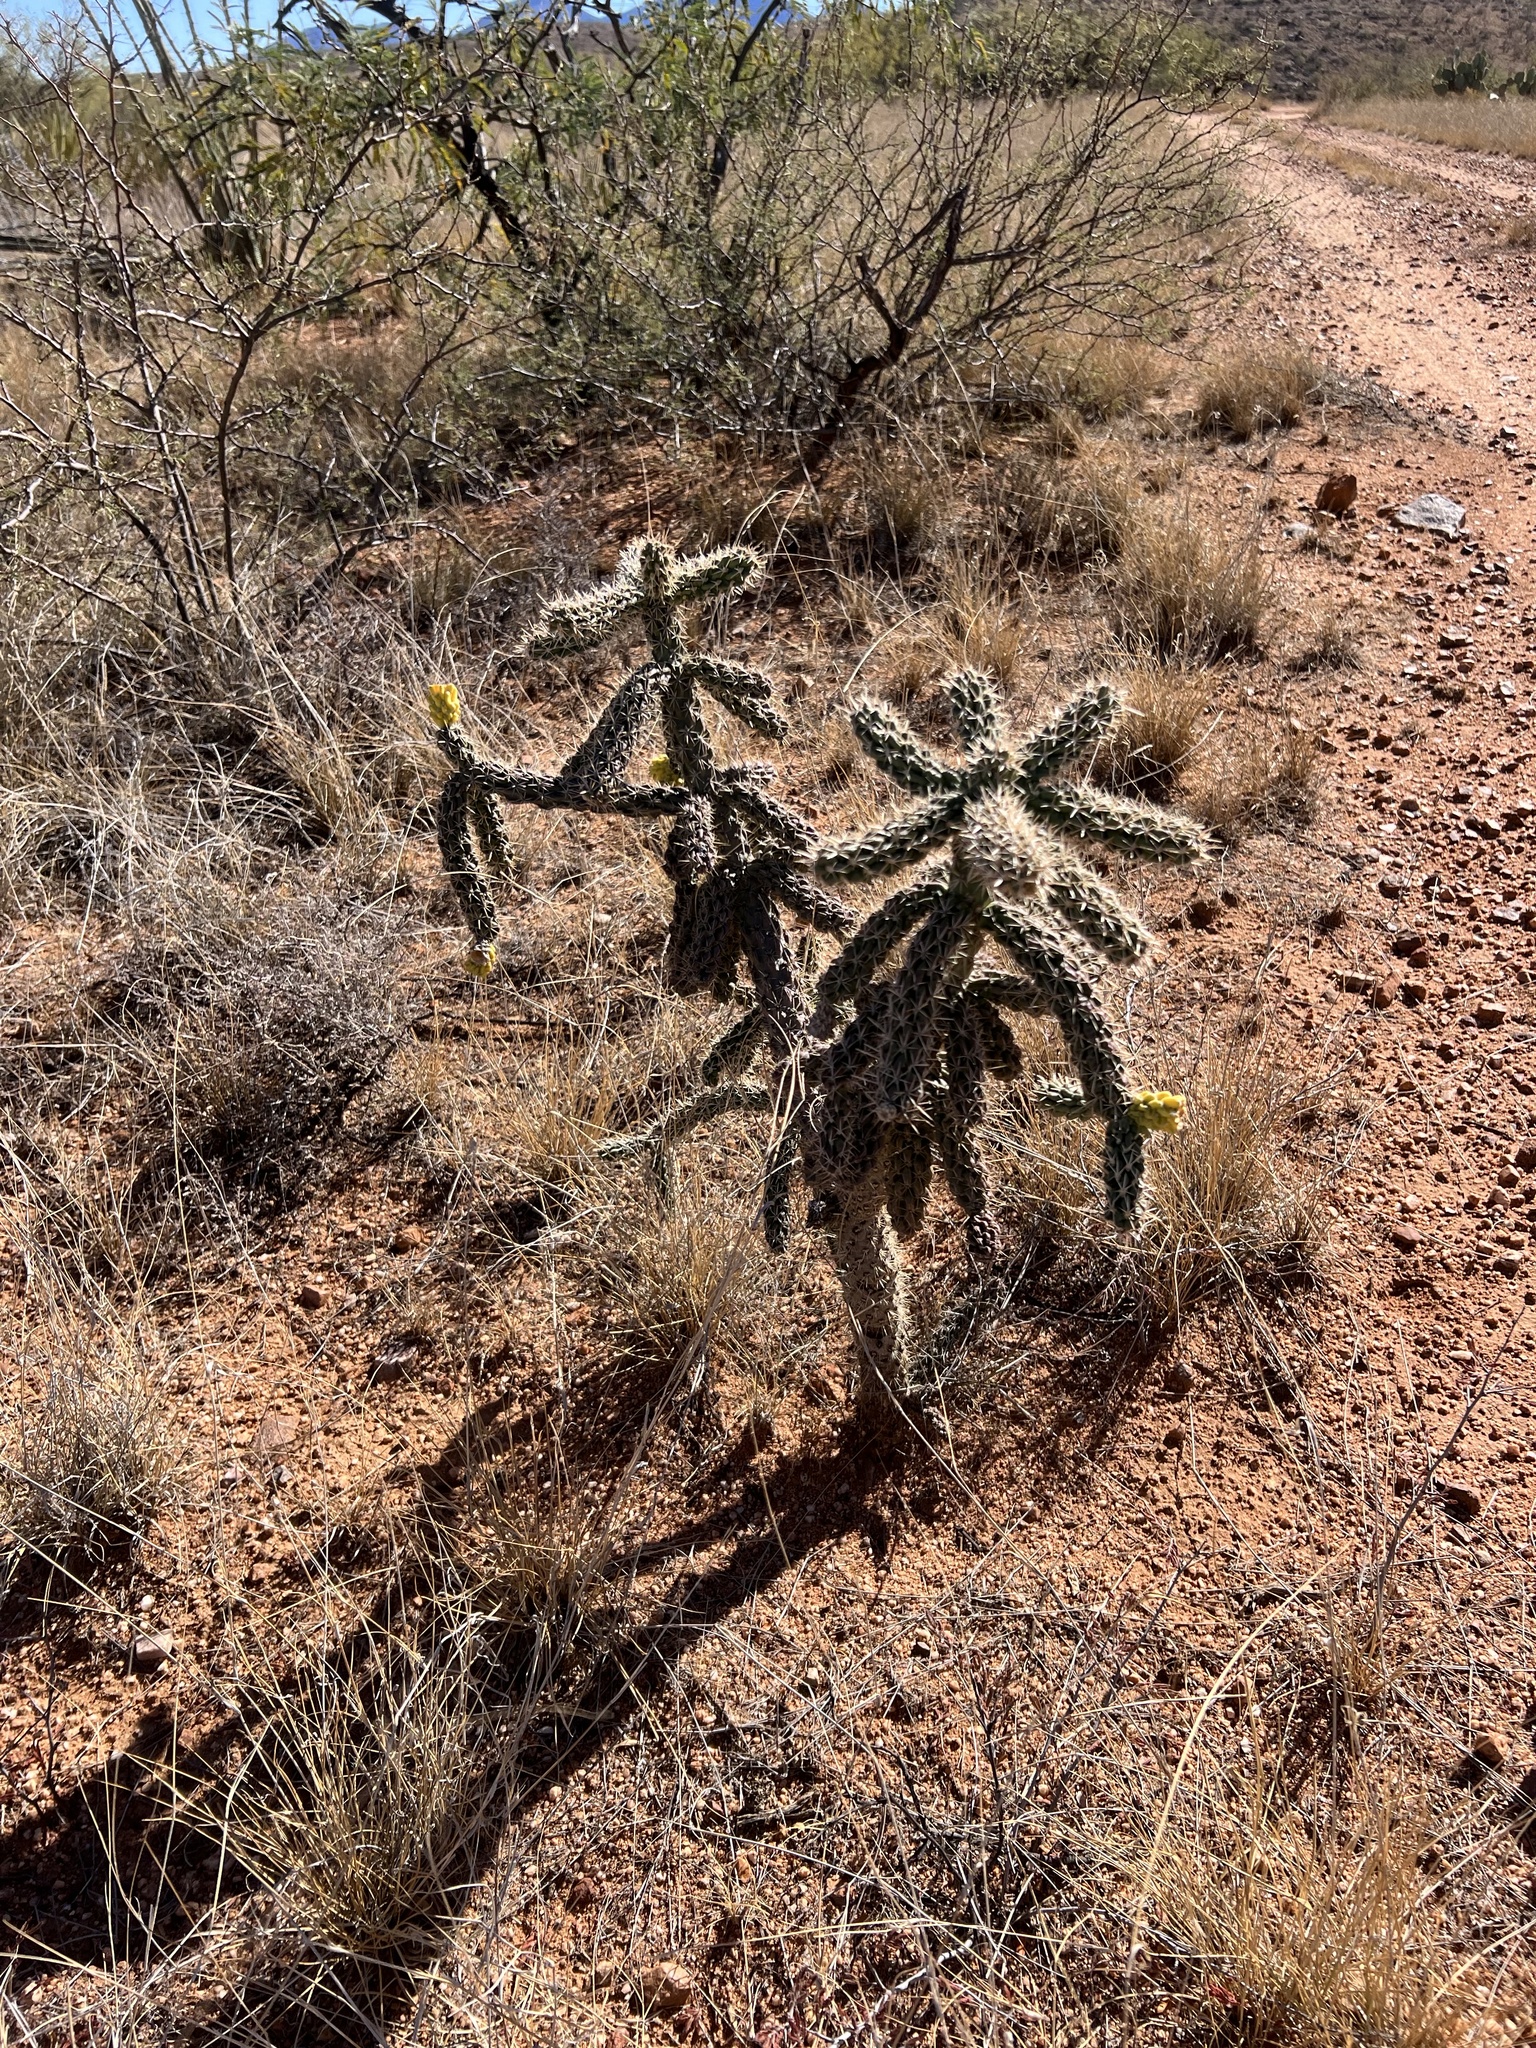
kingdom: Plantae
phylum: Tracheophyta
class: Magnoliopsida
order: Caryophyllales
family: Cactaceae
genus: Cylindropuntia
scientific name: Cylindropuntia imbricata
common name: Candelabrum cactus
